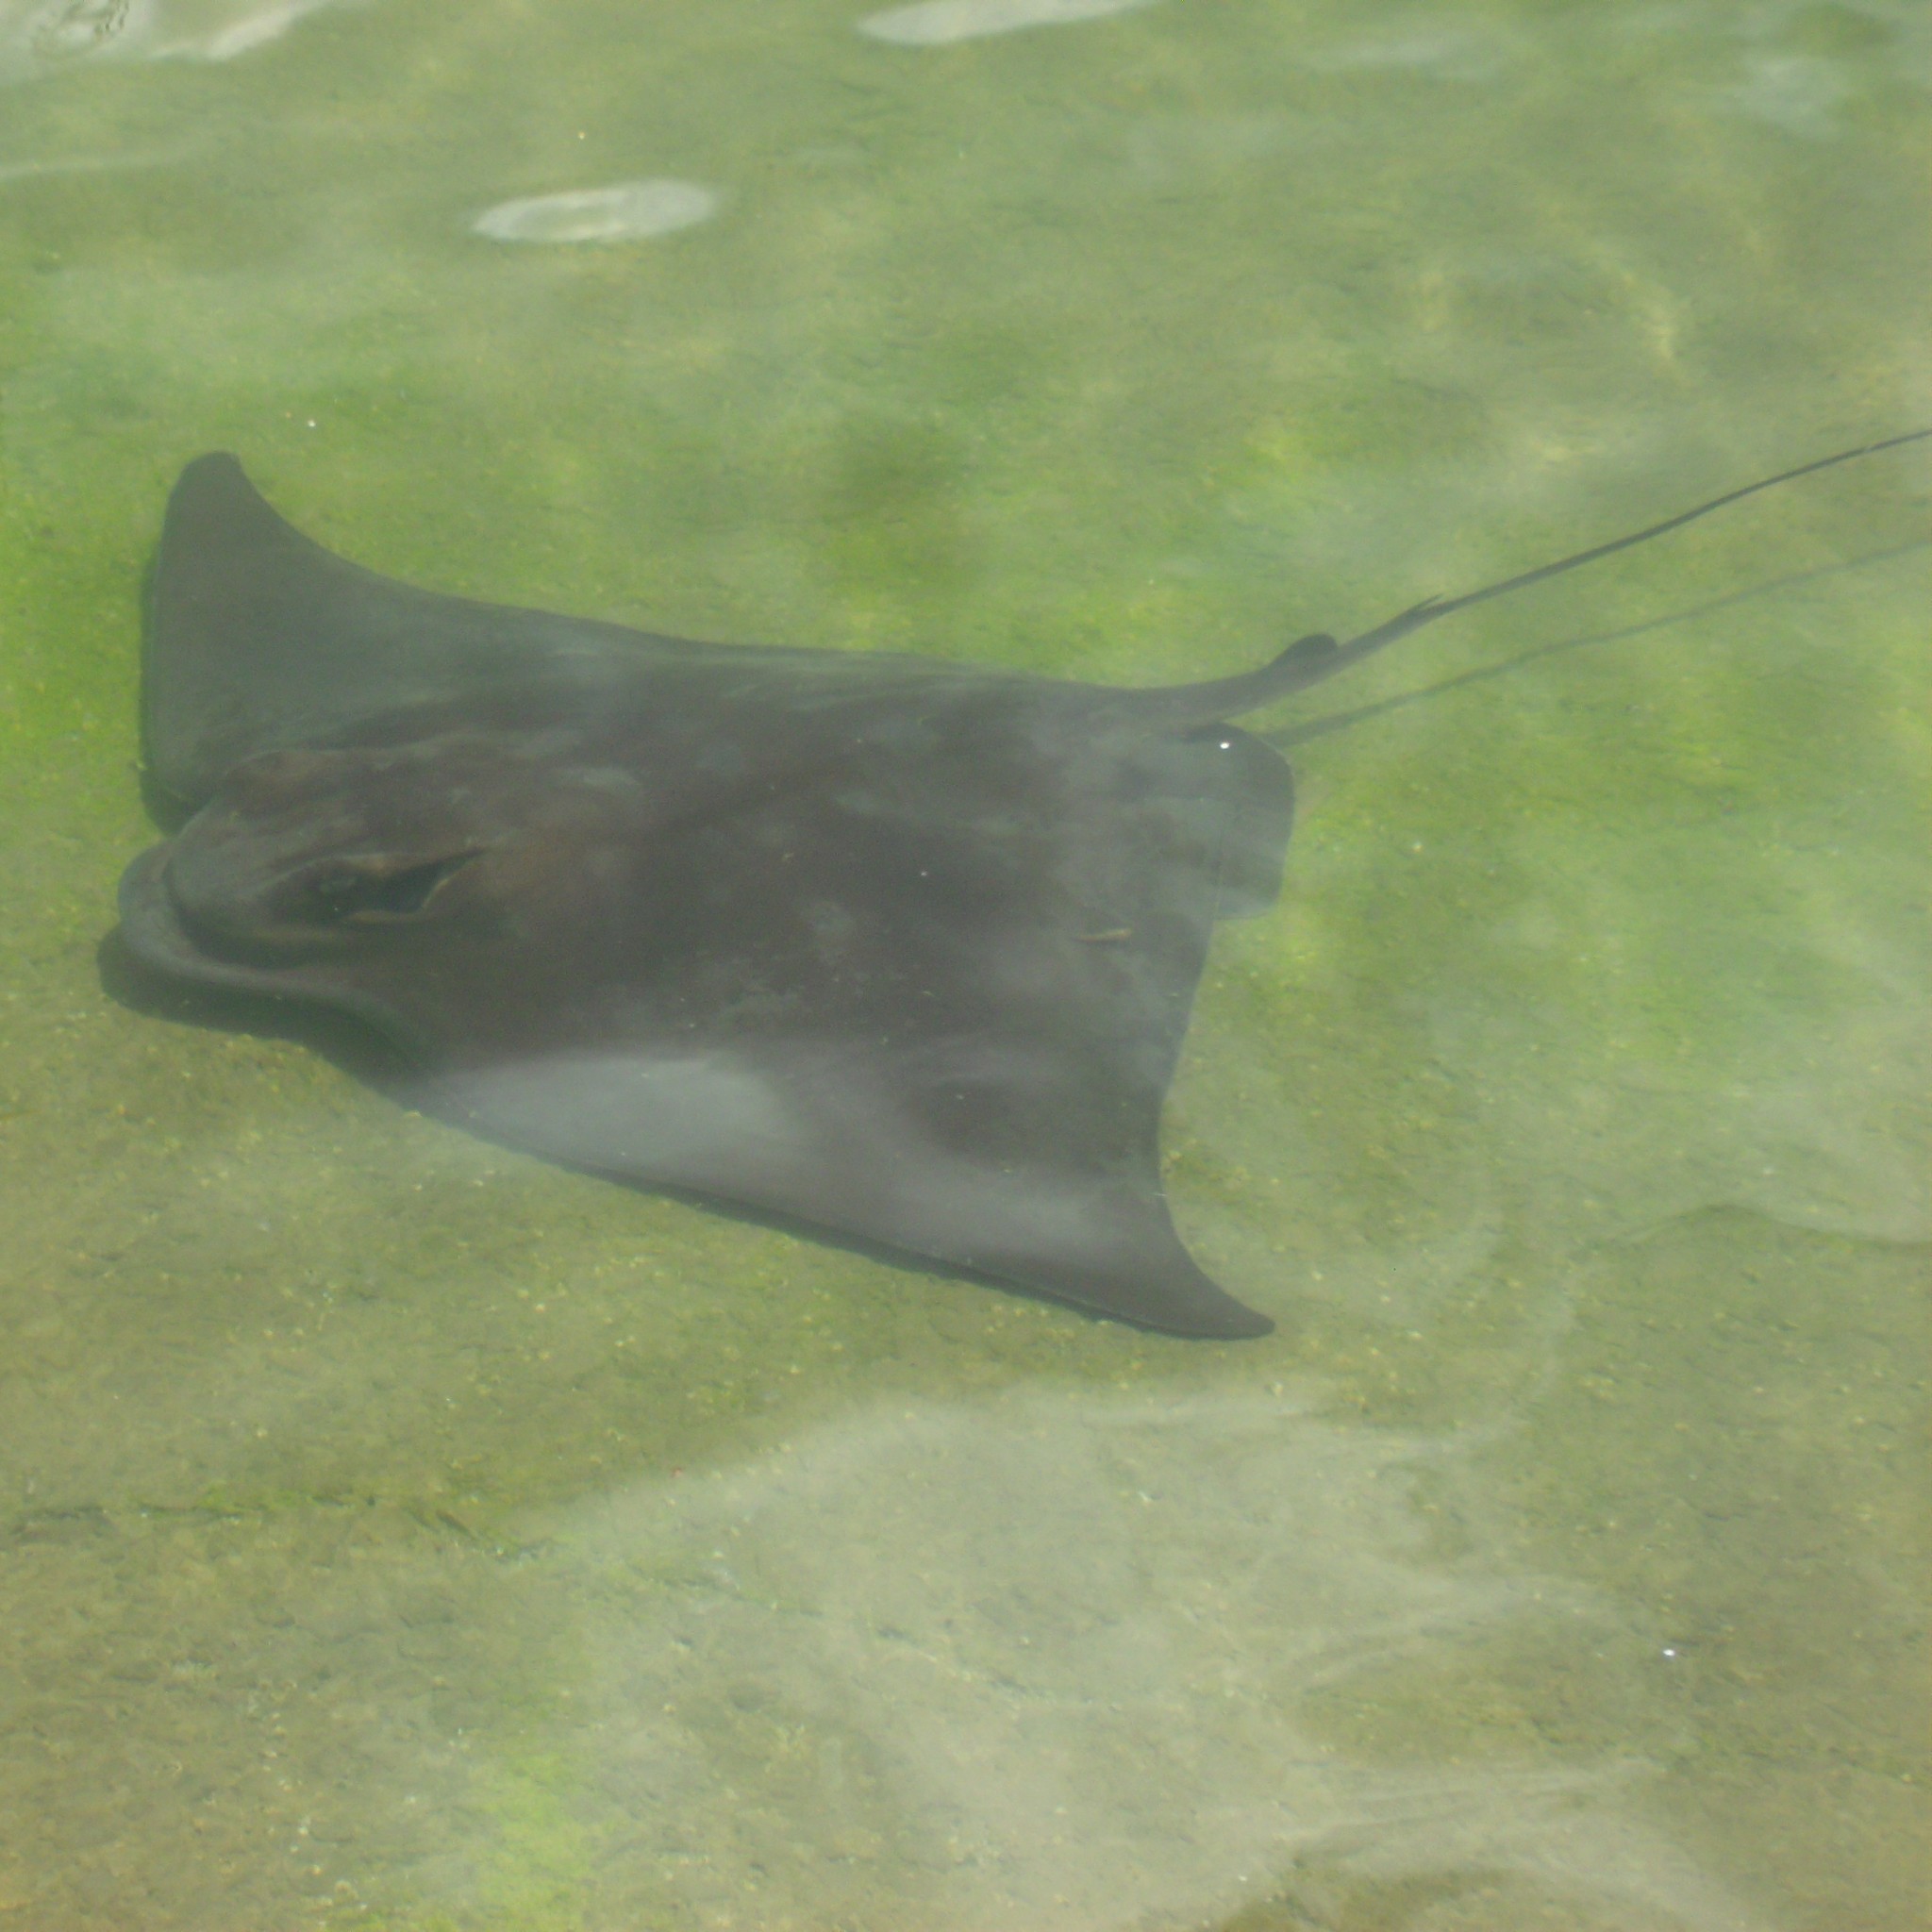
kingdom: Animalia
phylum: Chordata
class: Elasmobranchii
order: Myliobatiformes
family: Myliobatidae
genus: Myliobatis
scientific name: Myliobatis tenuicaudatus
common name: Eagle ray
